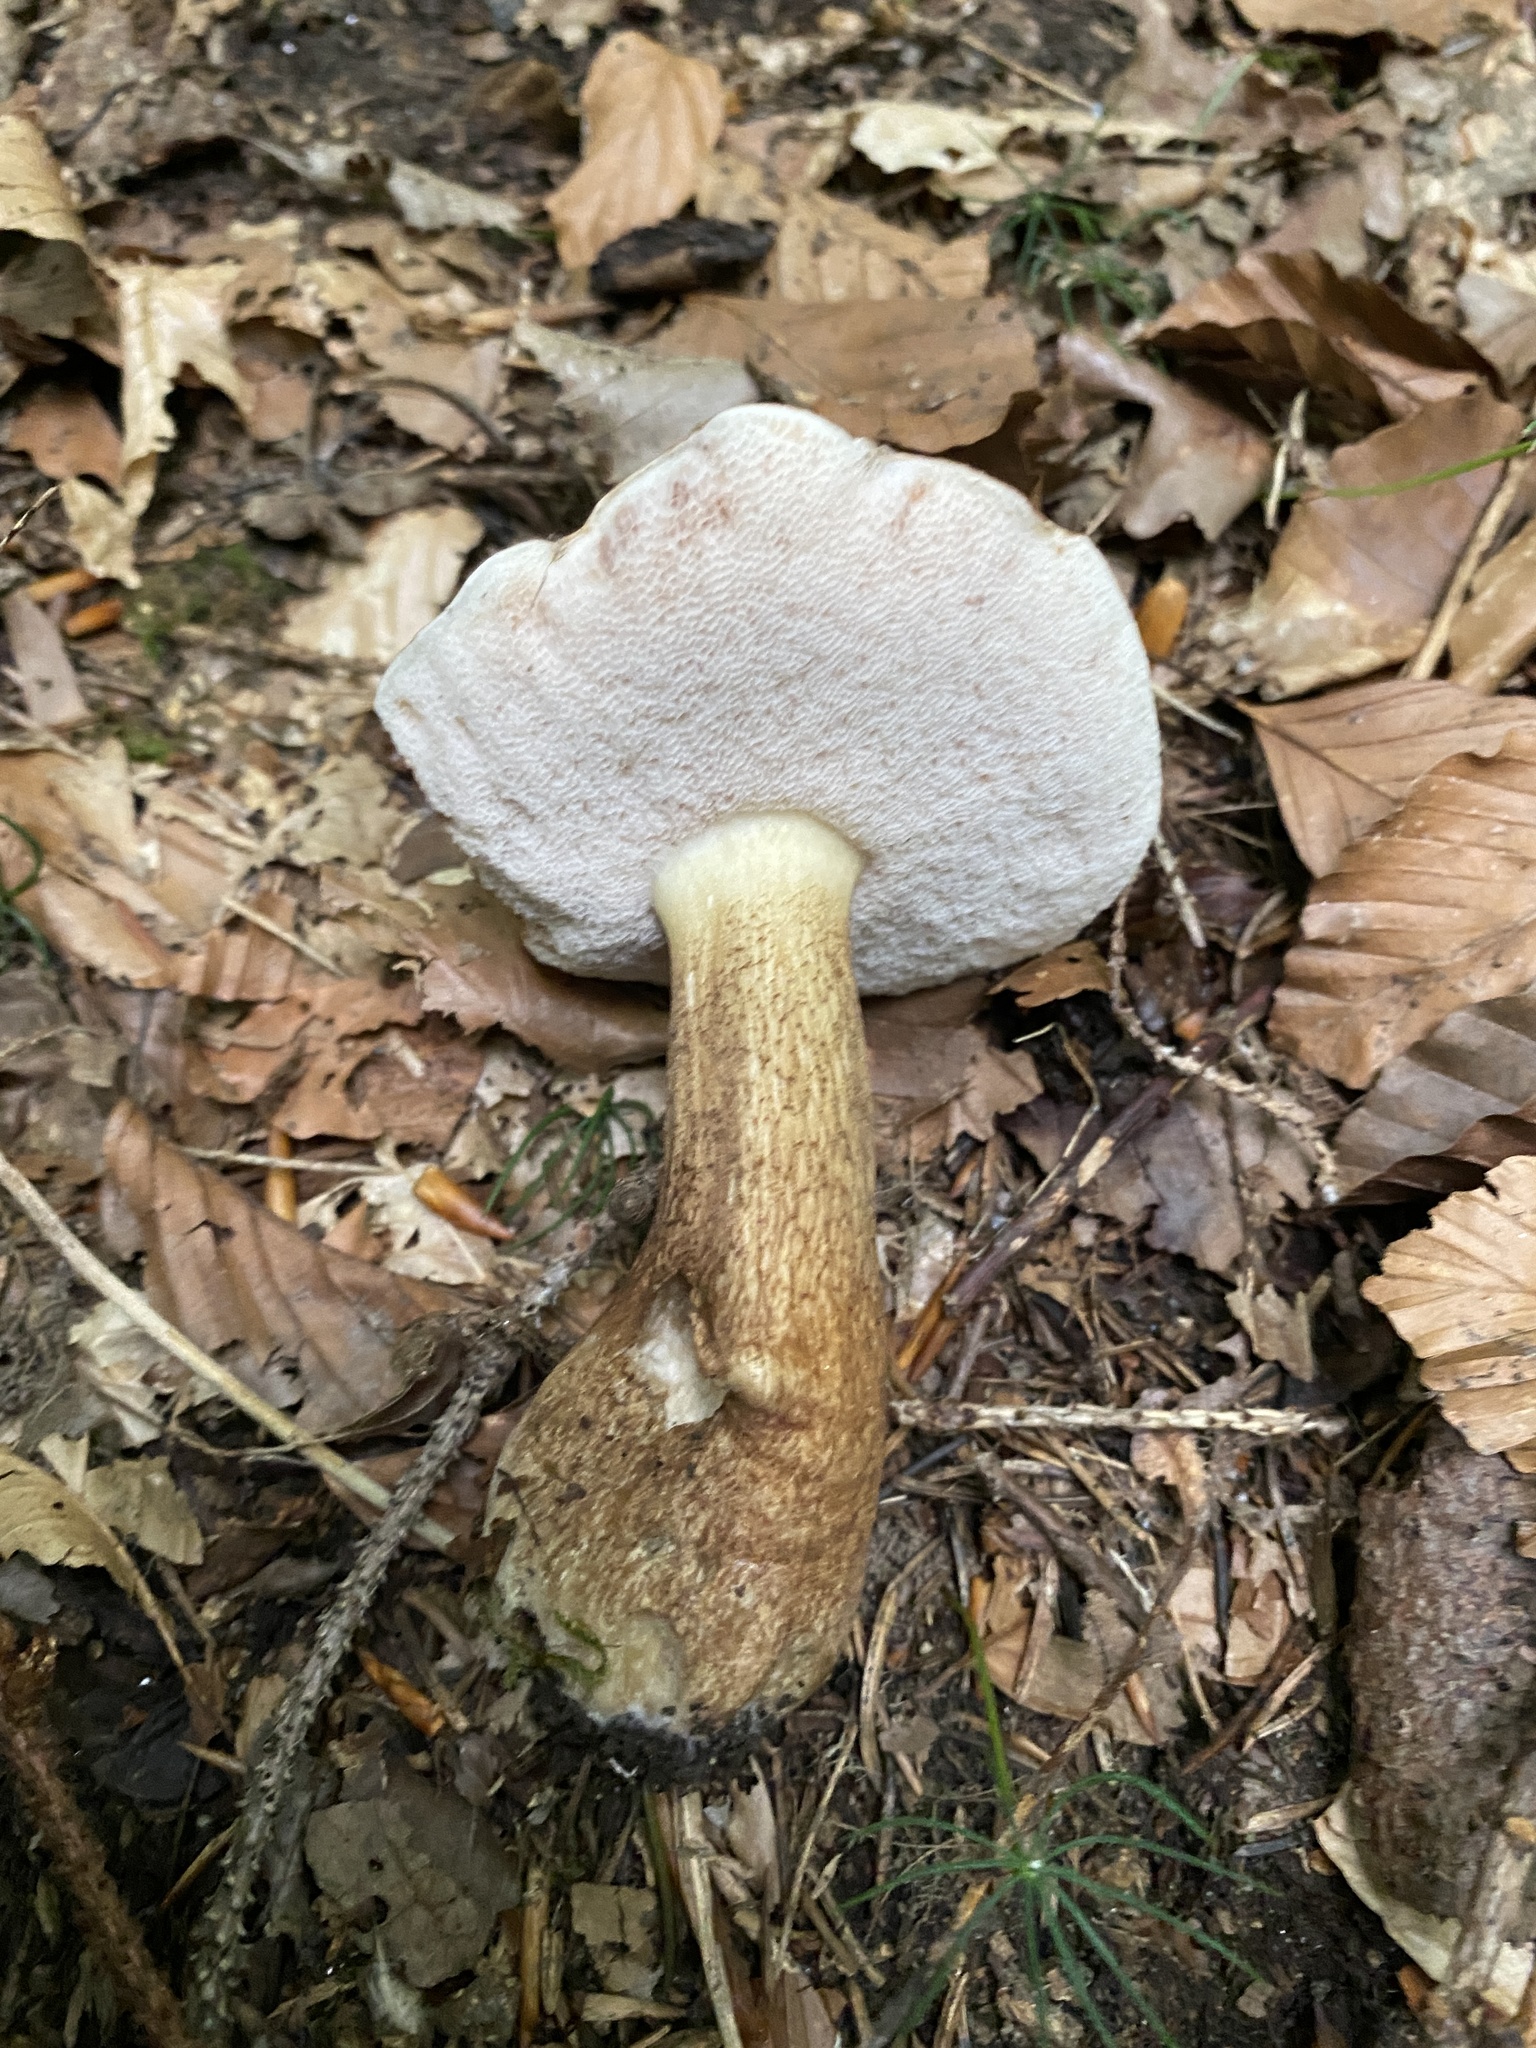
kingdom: Fungi
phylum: Basidiomycota
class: Agaricomycetes
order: Boletales
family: Boletaceae
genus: Tylopilus
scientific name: Tylopilus felleus
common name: Bitter bolete
